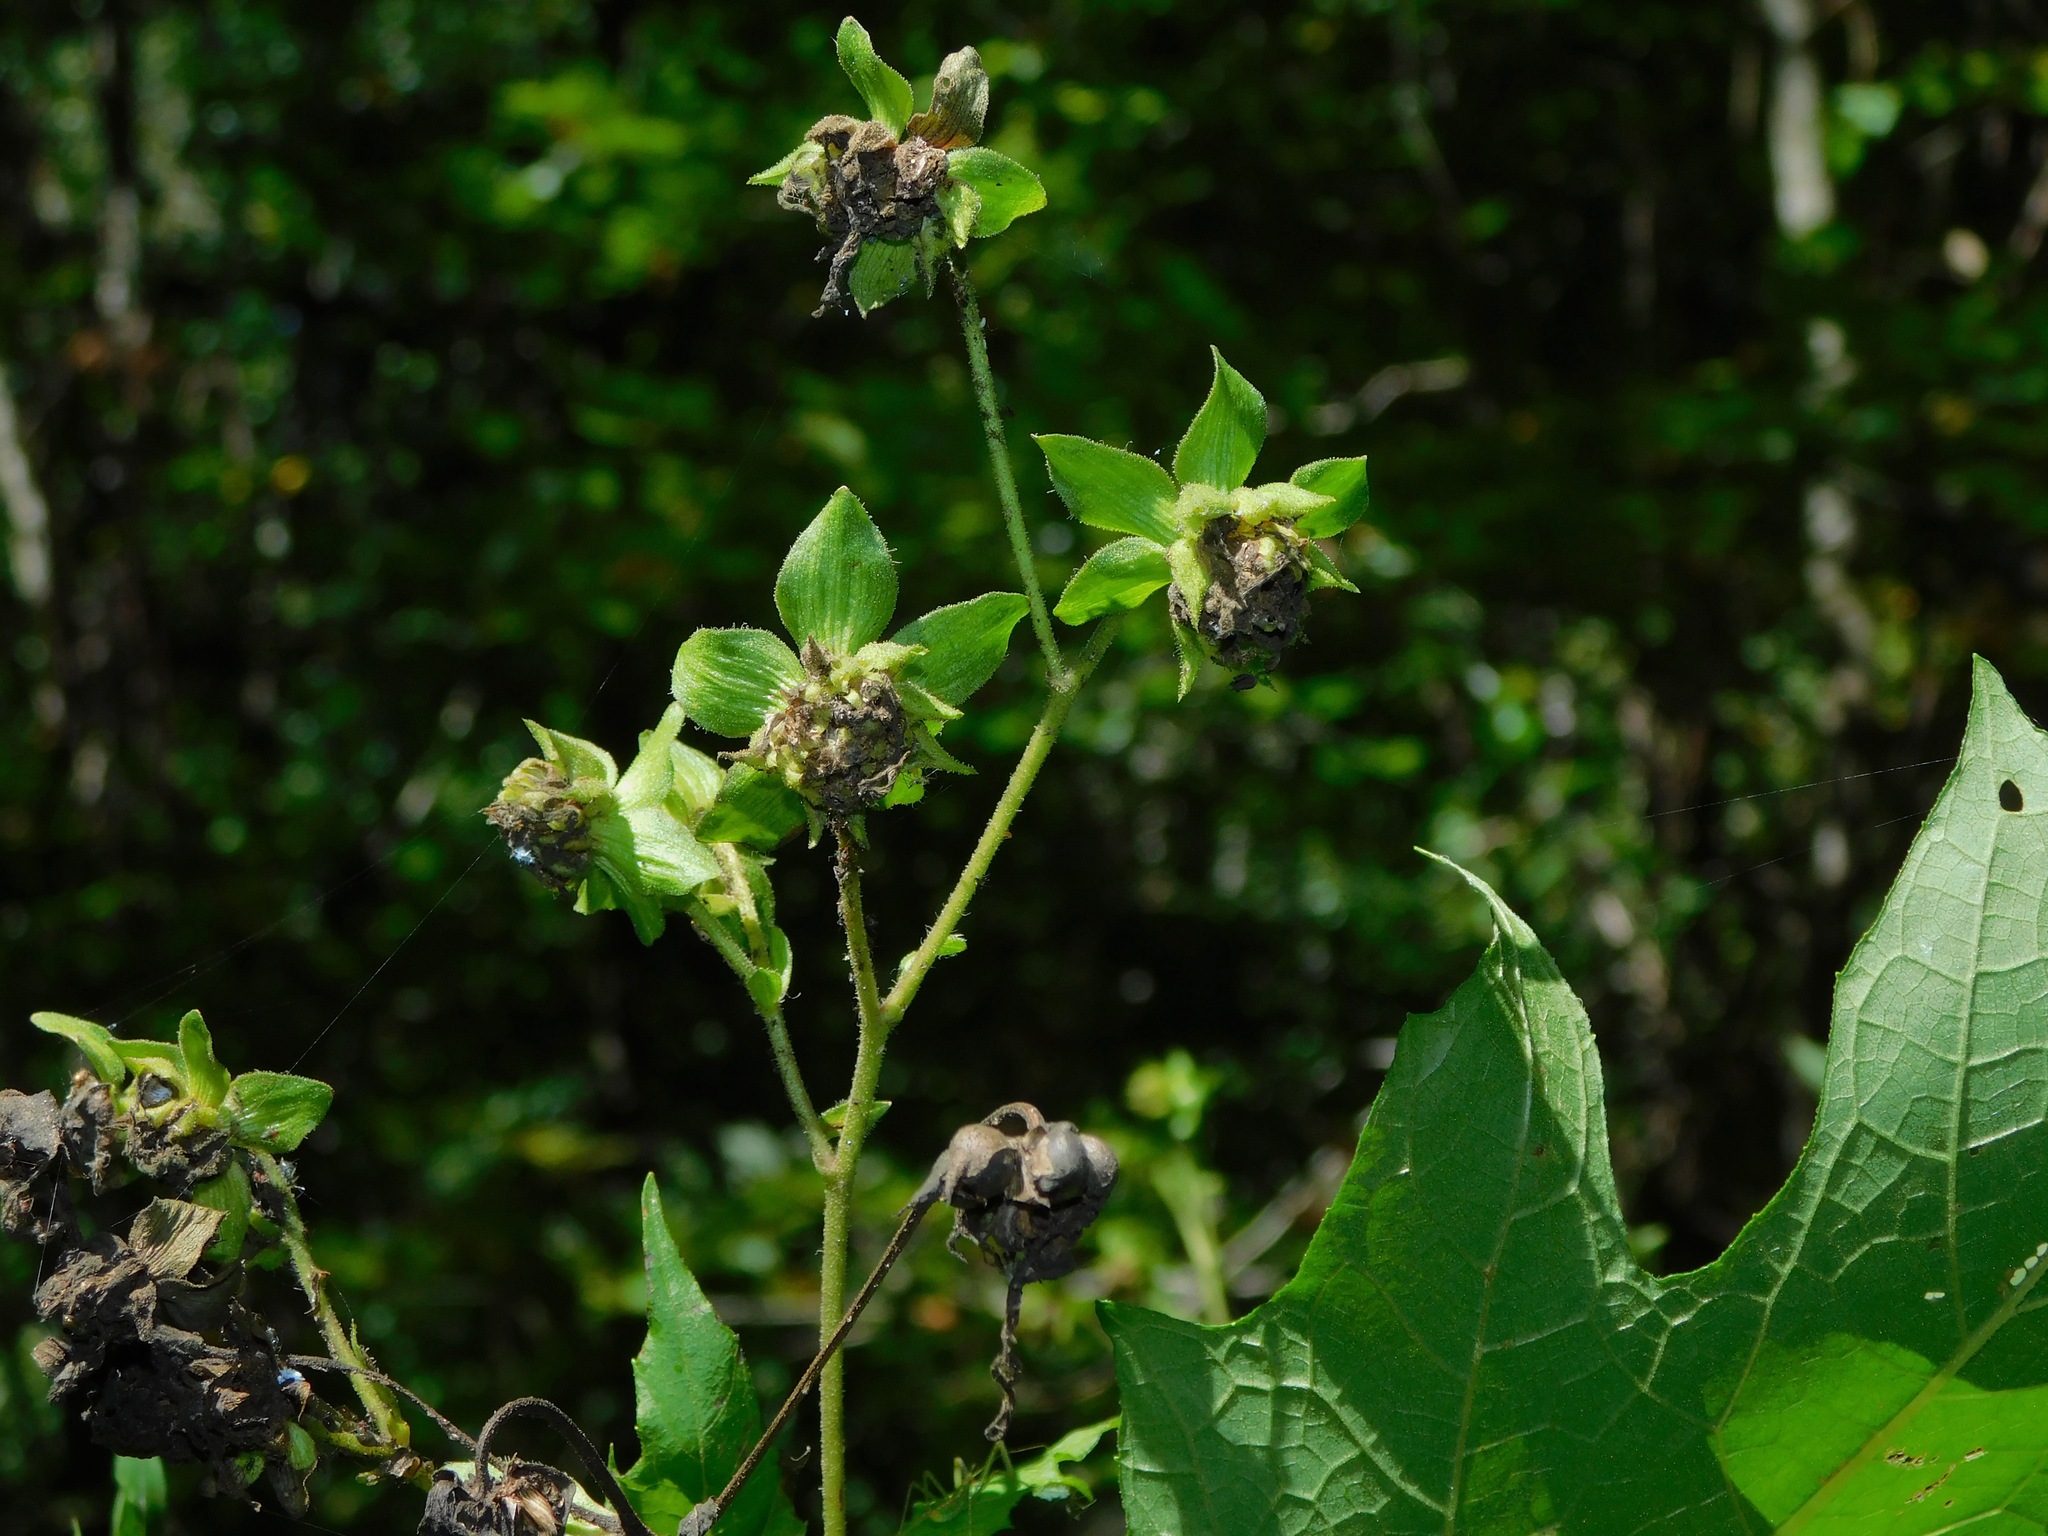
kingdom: Plantae
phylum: Tracheophyta
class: Magnoliopsida
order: Asterales
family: Asteraceae
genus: Smallanthus
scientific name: Smallanthus uvedalia
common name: Bear's-foot
